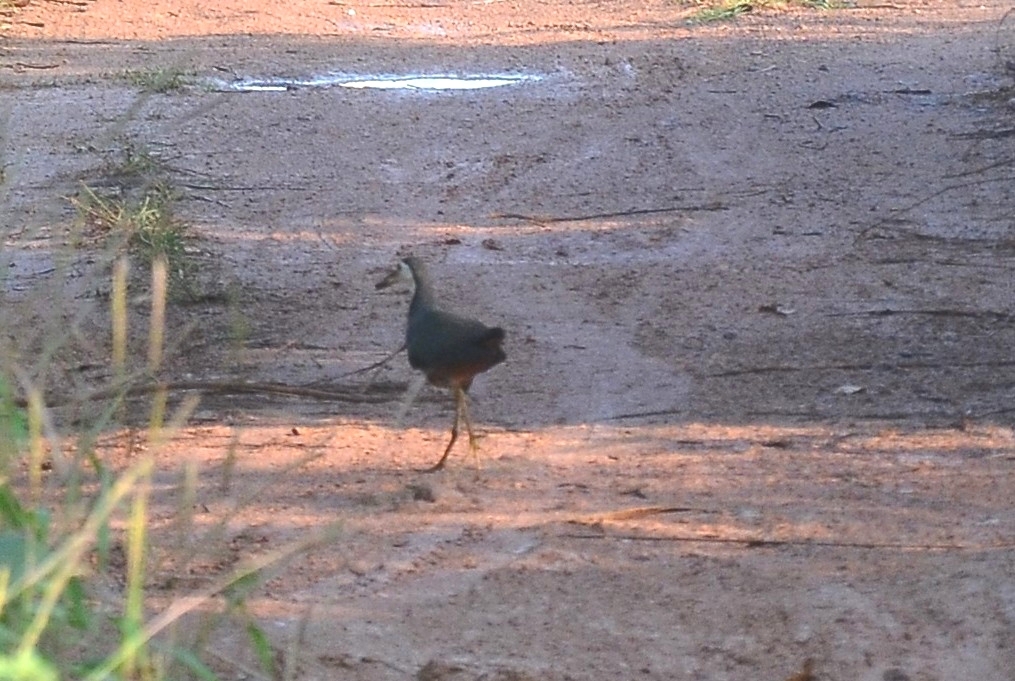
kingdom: Animalia
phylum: Chordata
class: Aves
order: Gruiformes
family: Rallidae
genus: Amaurornis
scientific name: Amaurornis phoenicurus
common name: White-breasted waterhen
